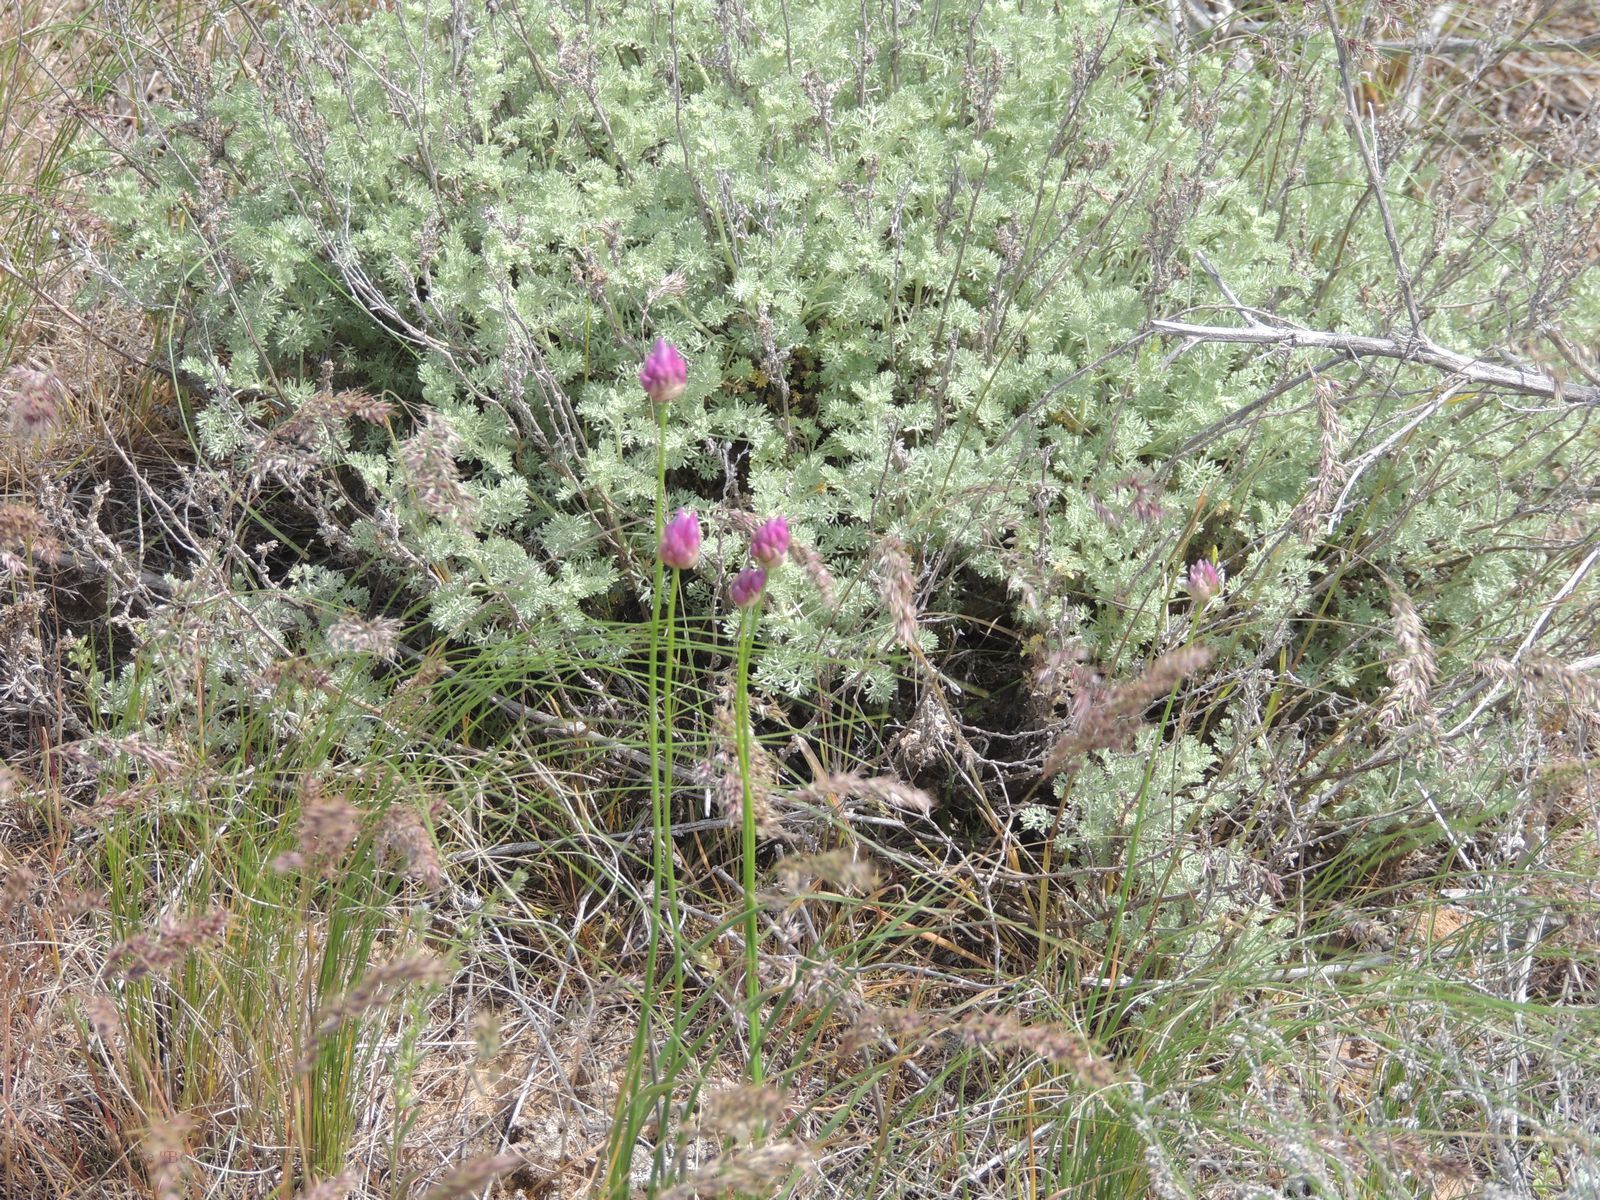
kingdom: Plantae
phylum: Tracheophyta
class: Liliopsida
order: Asparagales
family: Amaryllidaceae
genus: Allium
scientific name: Allium inderiense
